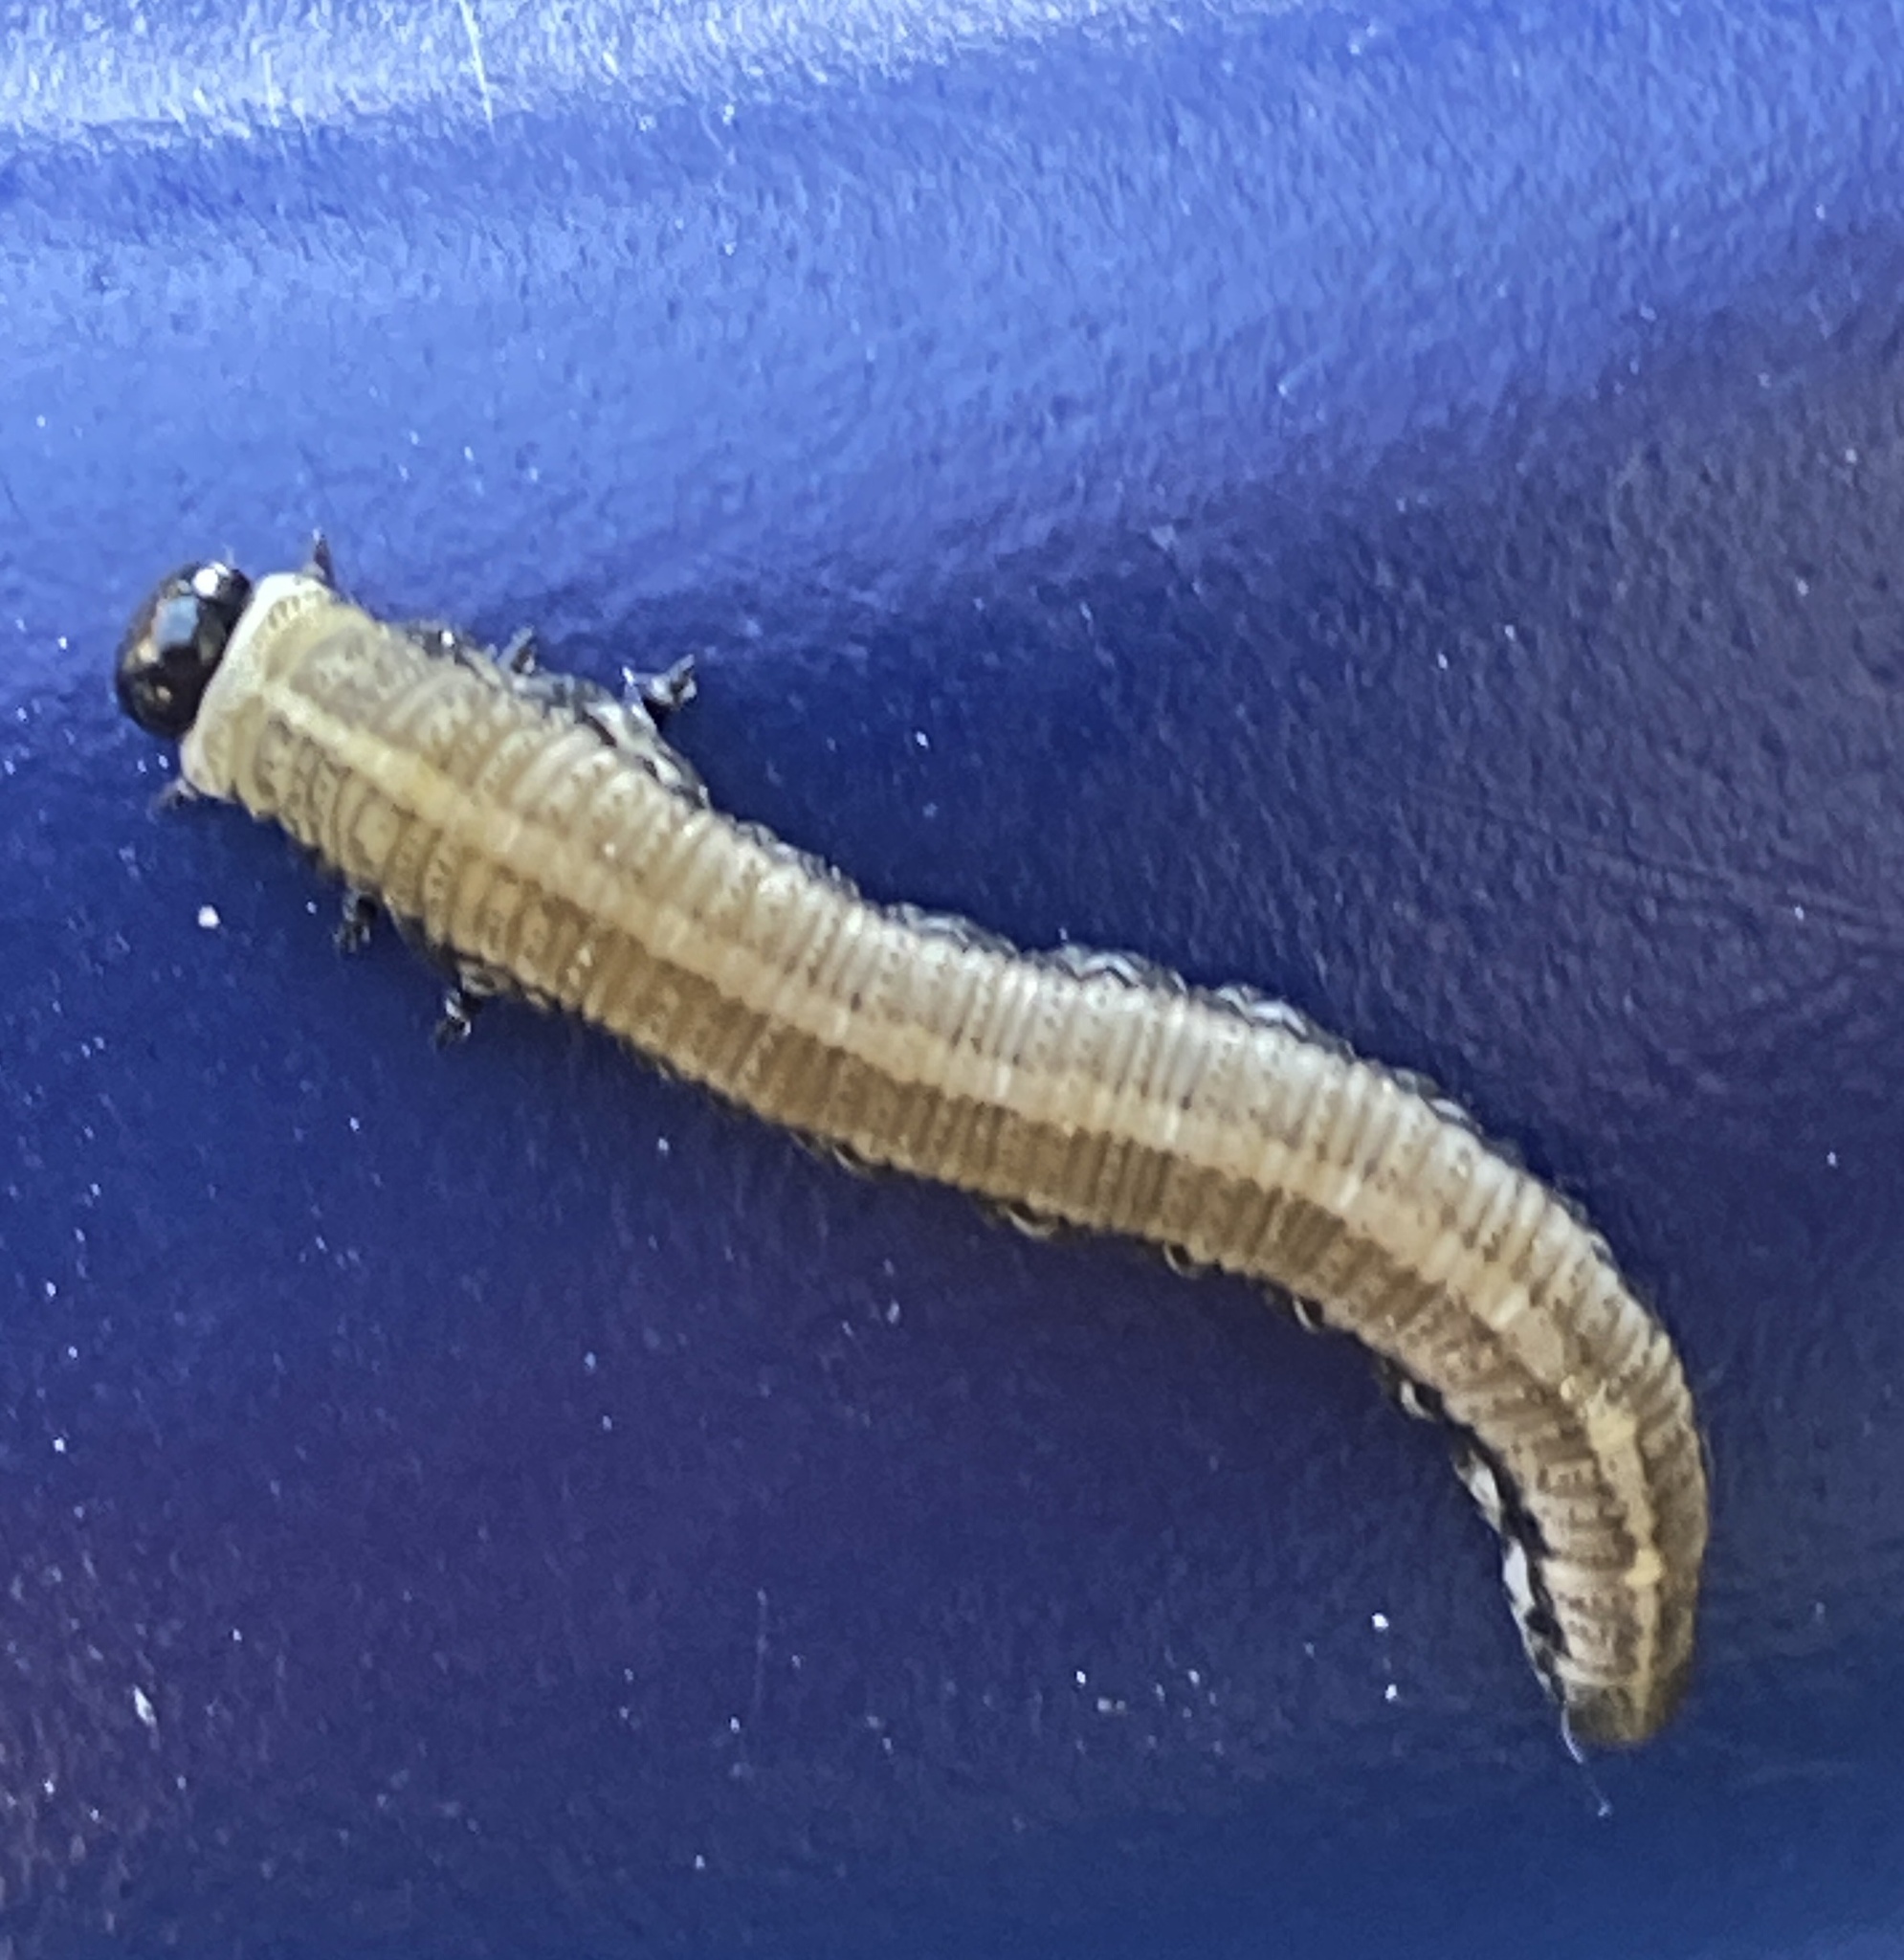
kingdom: Animalia
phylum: Arthropoda
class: Insecta
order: Hymenoptera
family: Diprionidae
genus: Neodiprion
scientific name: Neodiprion sertifer
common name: European pine sawfly
